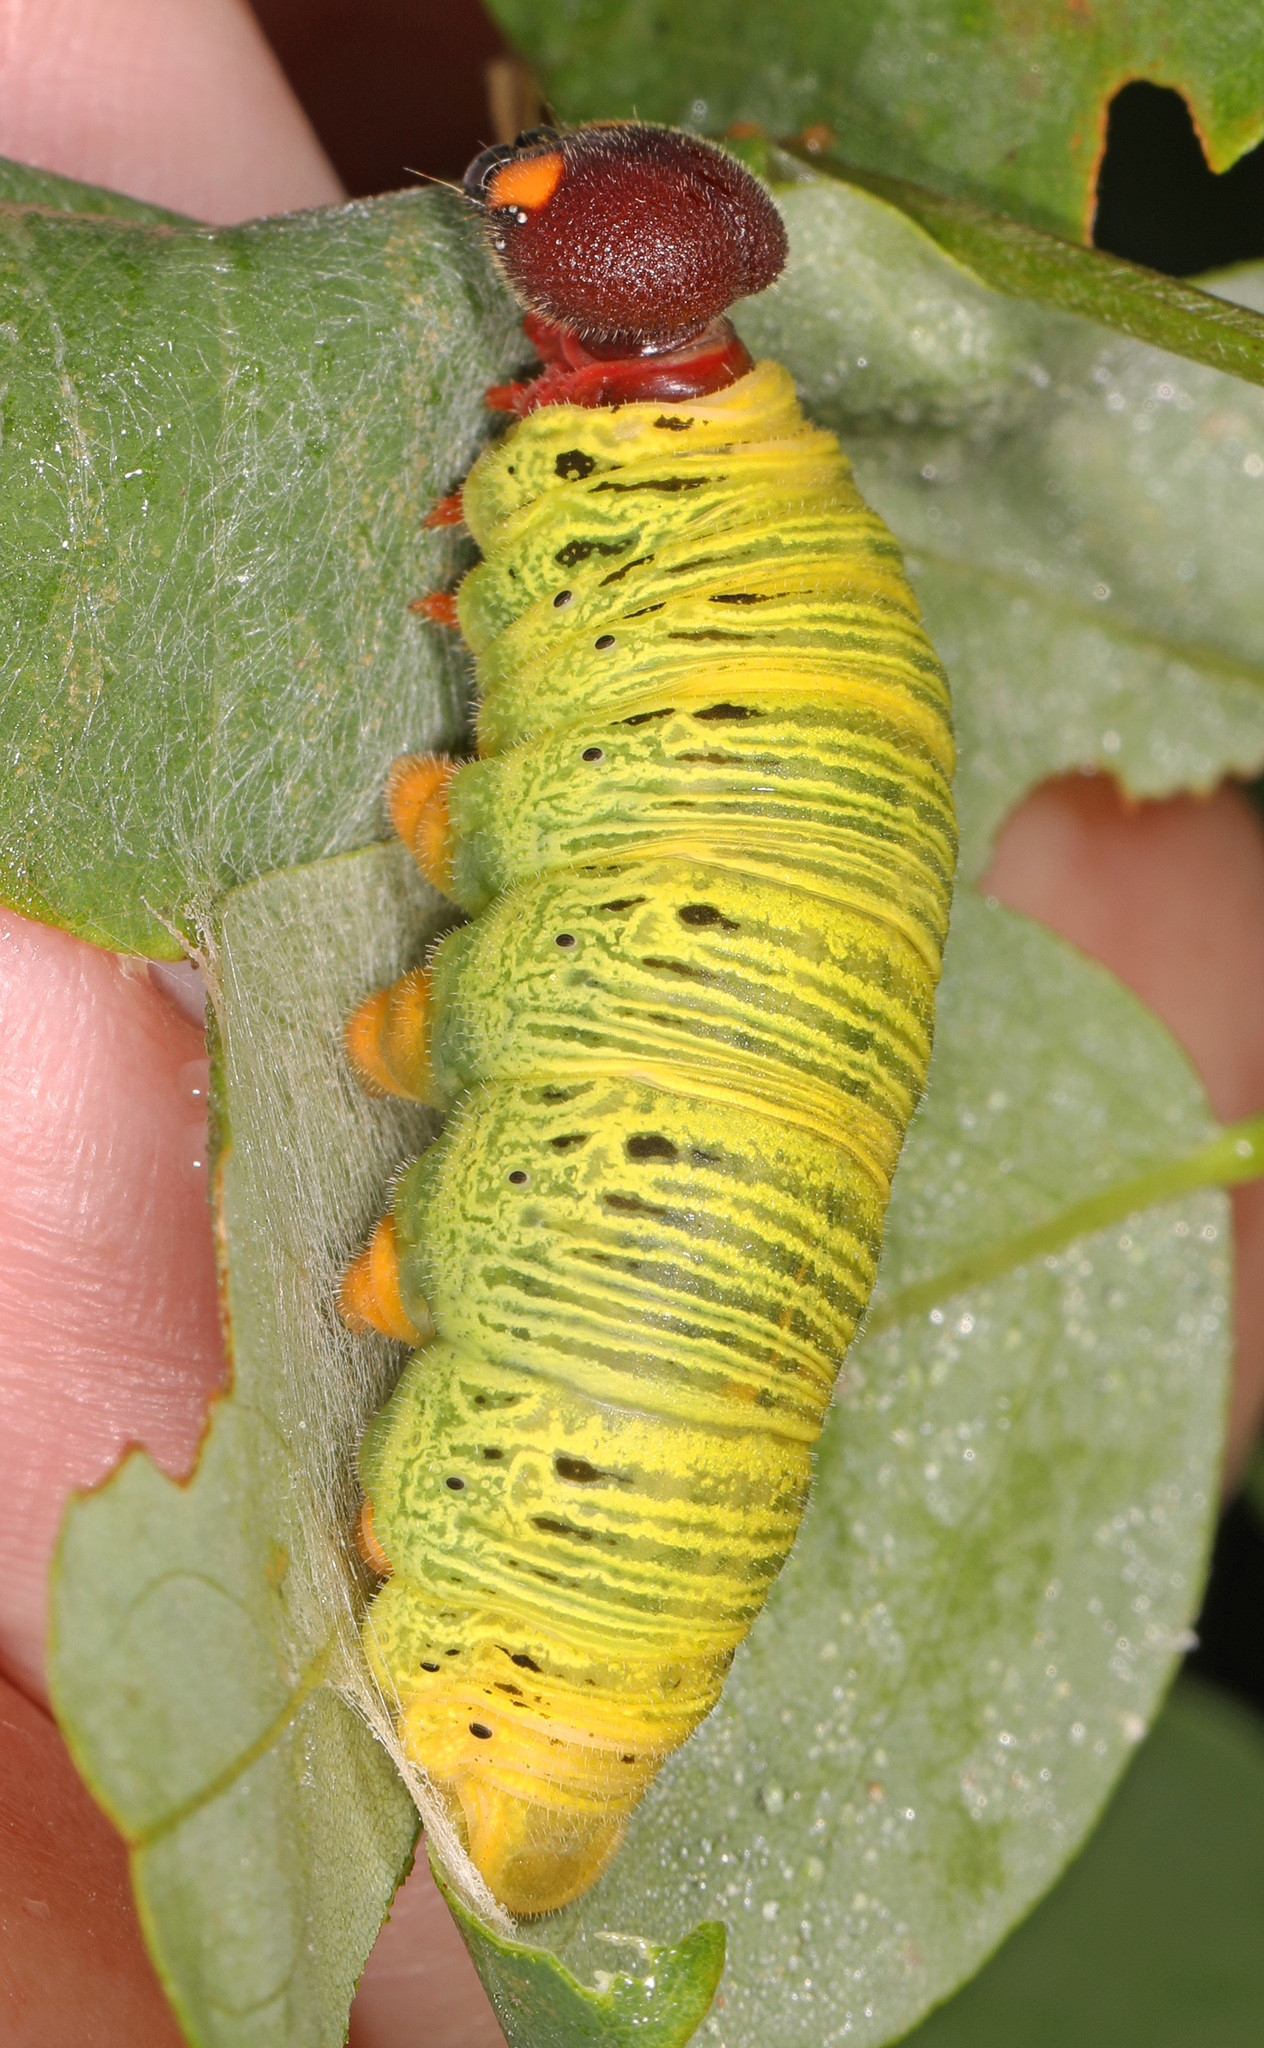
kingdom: Animalia
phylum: Arthropoda
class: Insecta
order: Lepidoptera
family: Hesperiidae
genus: Epargyreus
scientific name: Epargyreus clarus
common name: Silver-spotted skipper
